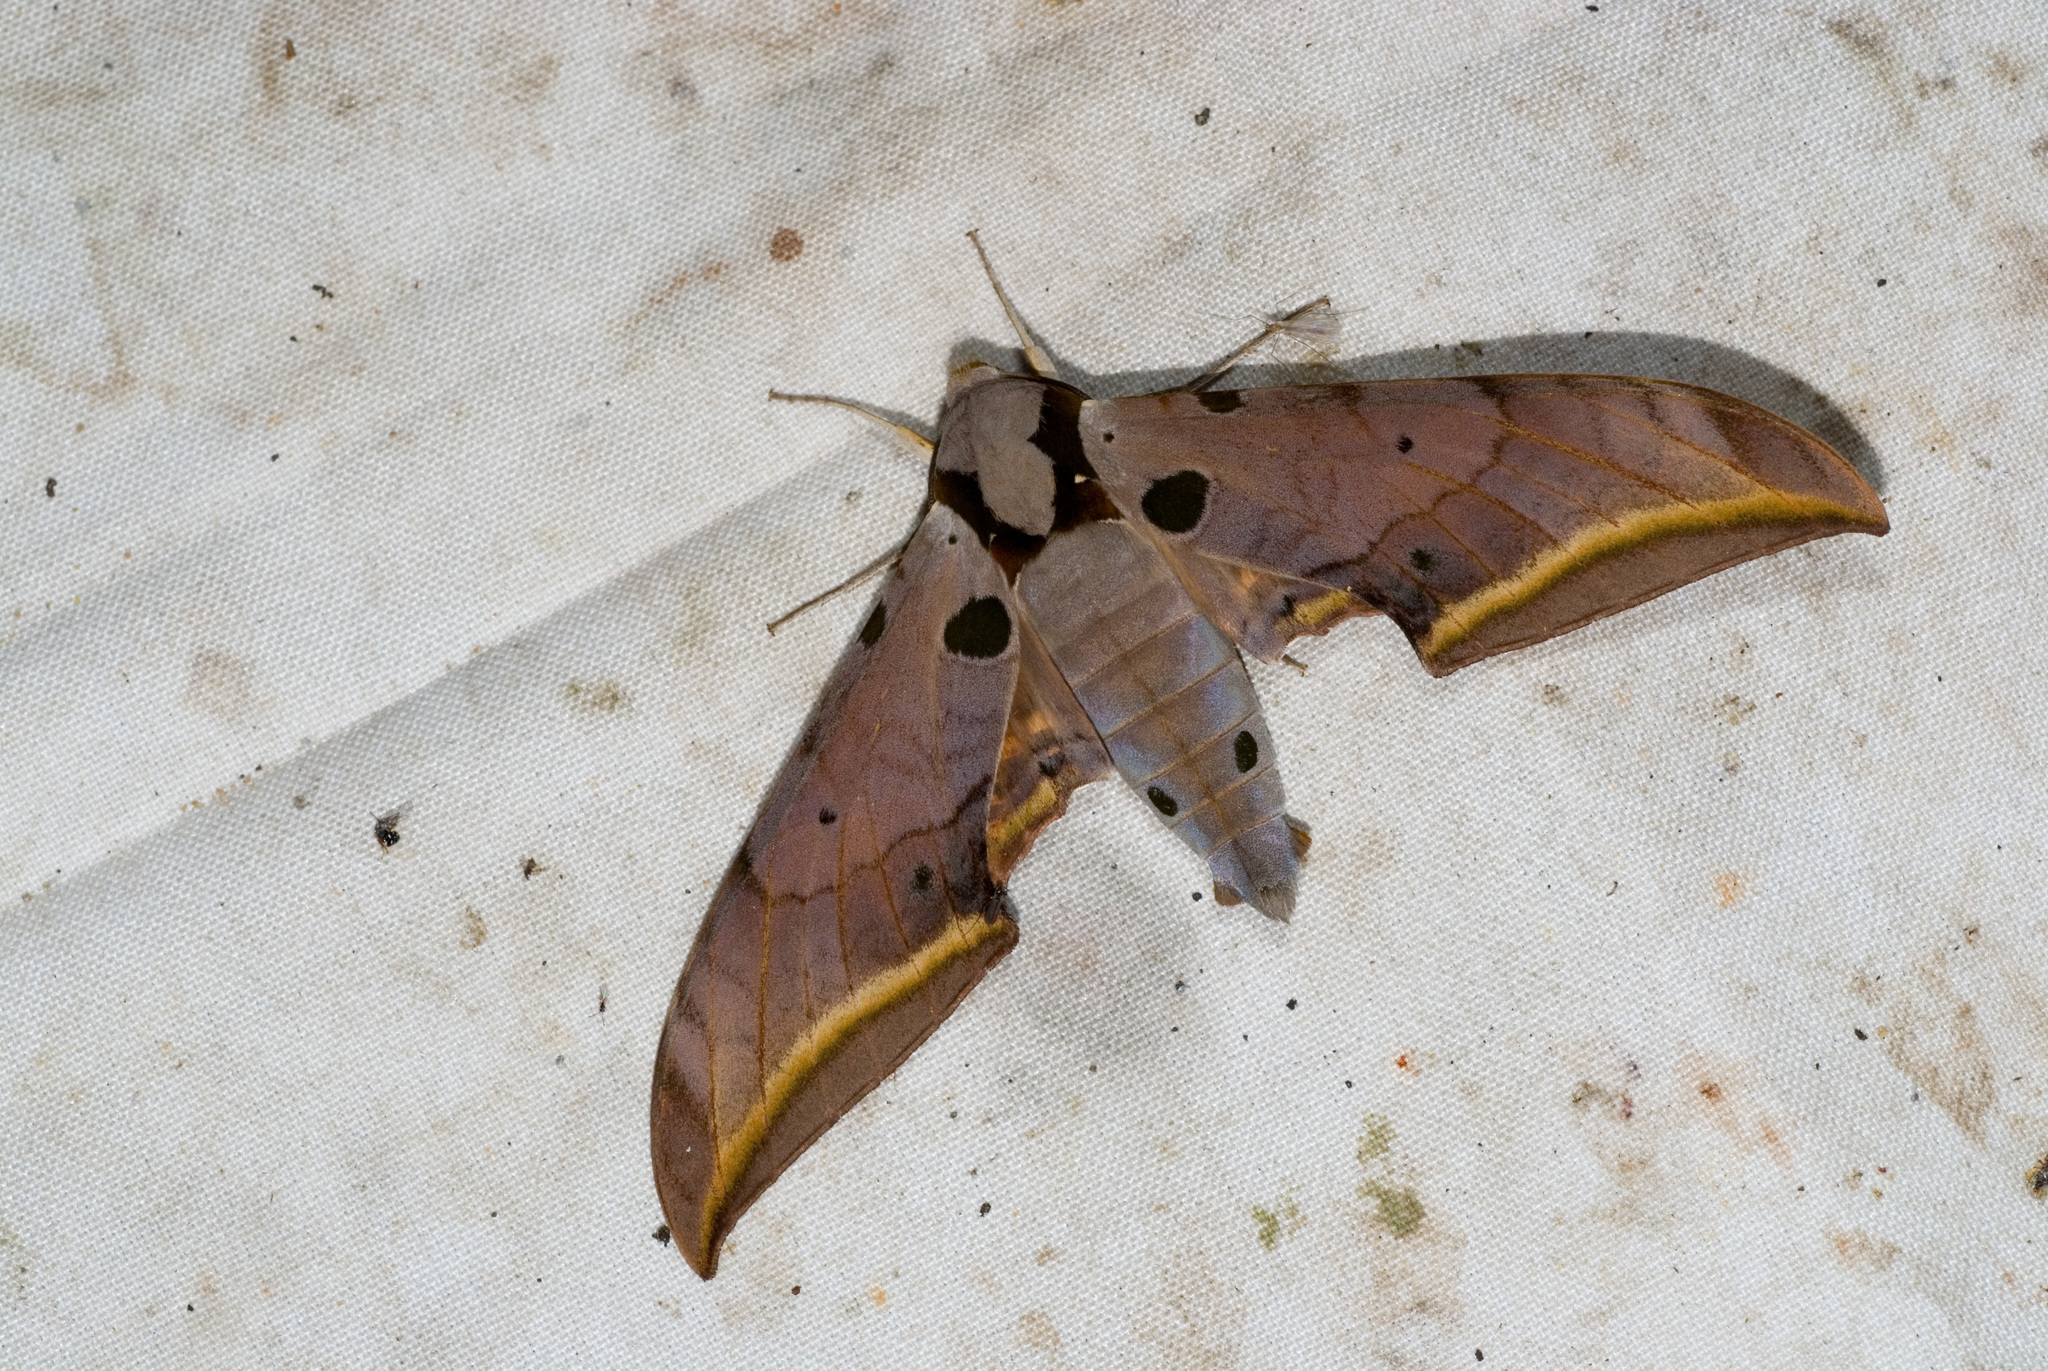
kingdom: Animalia
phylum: Arthropoda
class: Insecta
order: Lepidoptera
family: Sphingidae
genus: Ambulyx
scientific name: Ambulyx semiplacida
